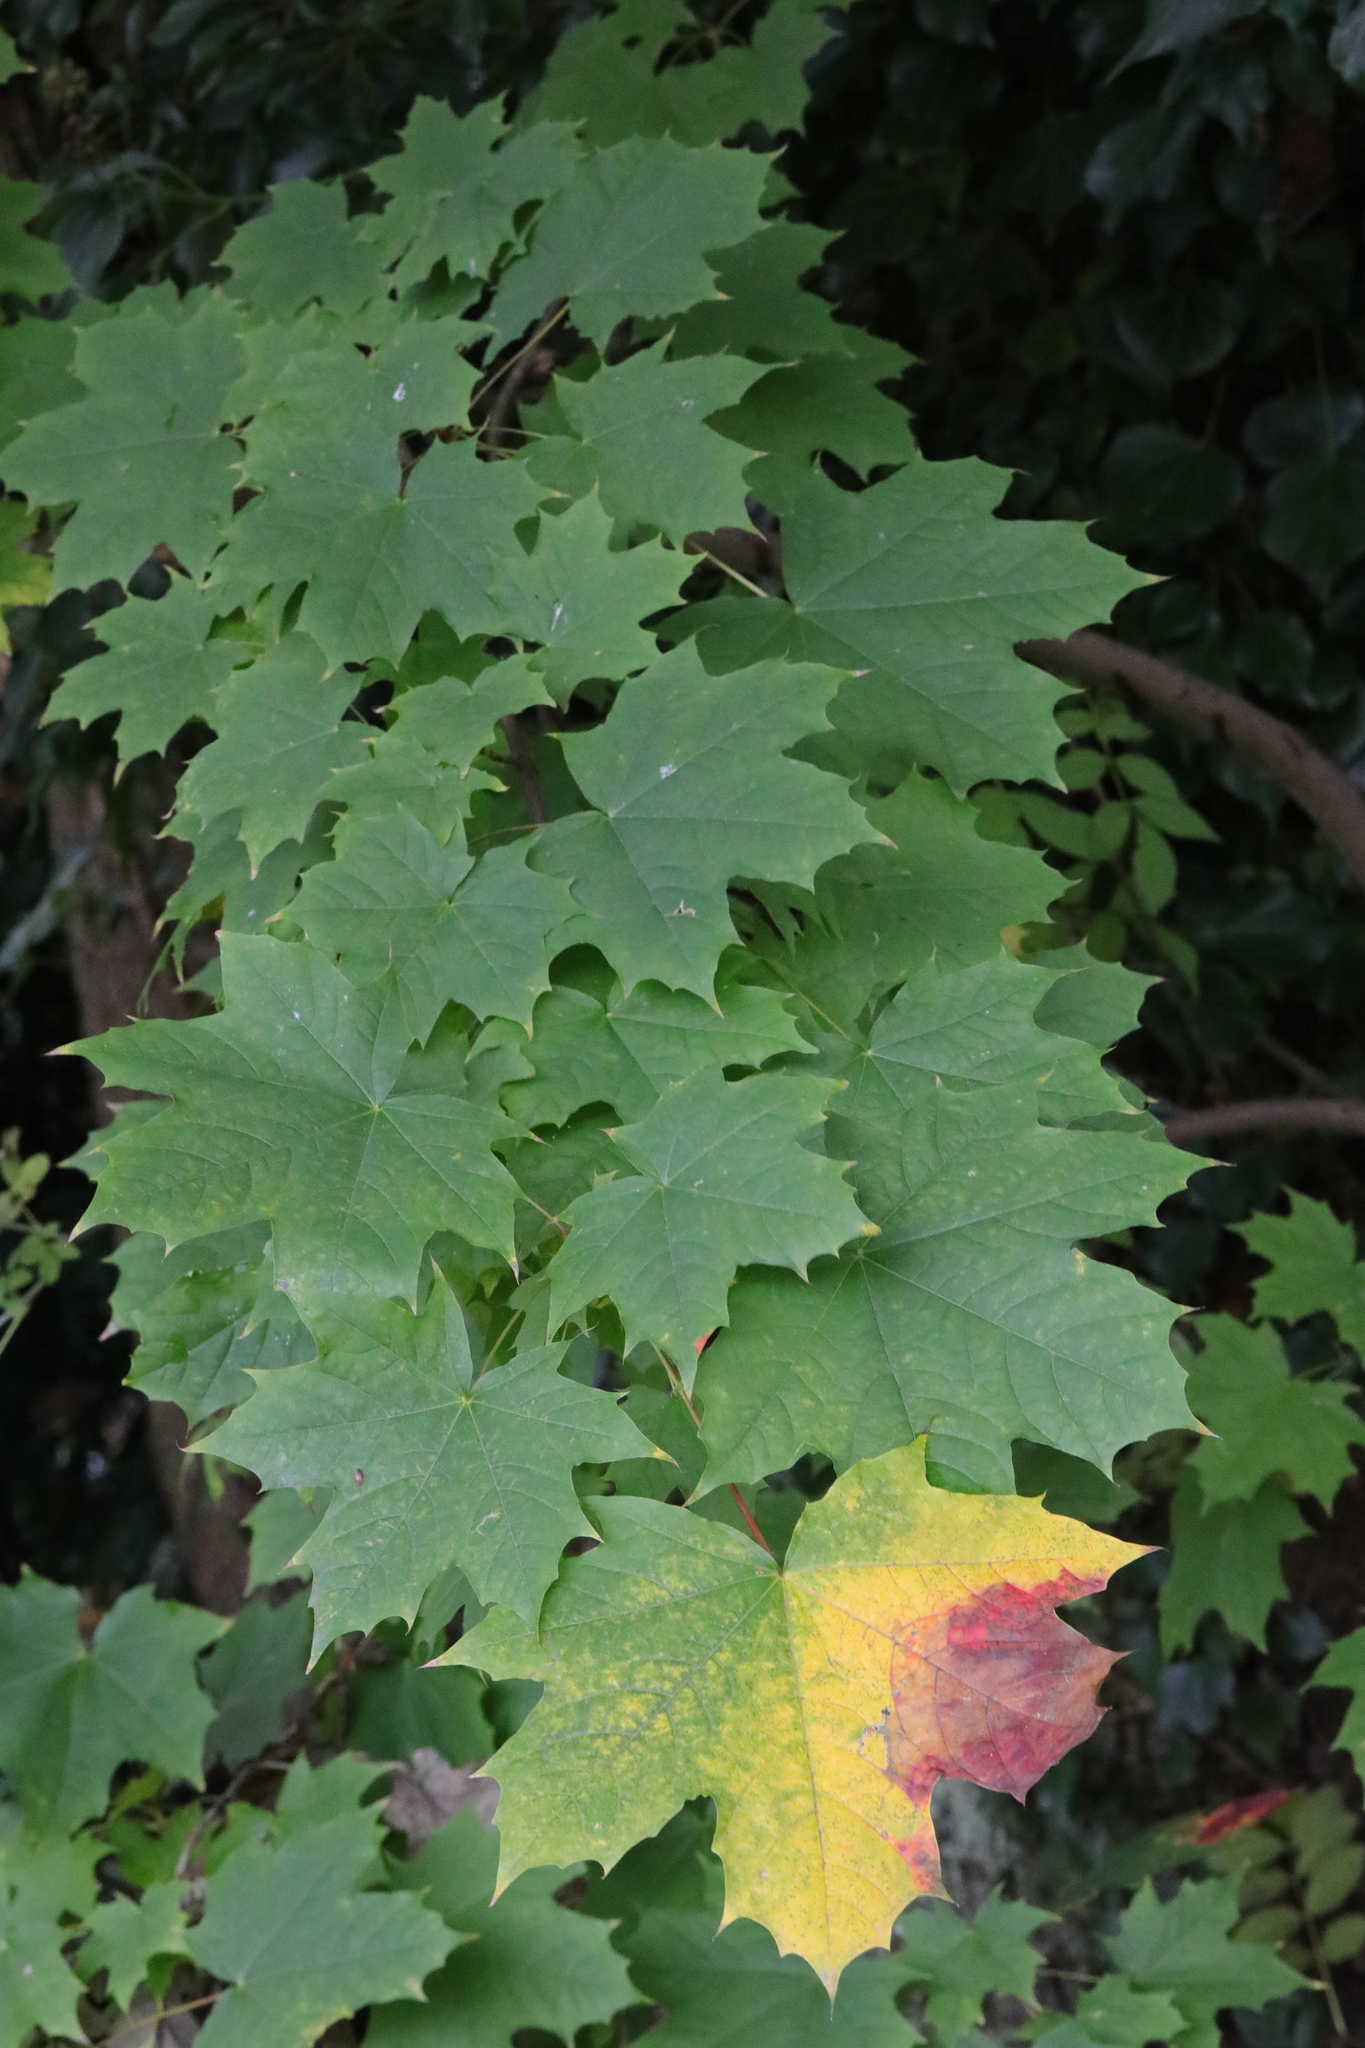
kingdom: Plantae
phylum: Tracheophyta
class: Magnoliopsida
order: Sapindales
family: Sapindaceae
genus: Acer
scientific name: Acer platanoides
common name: Norway maple
